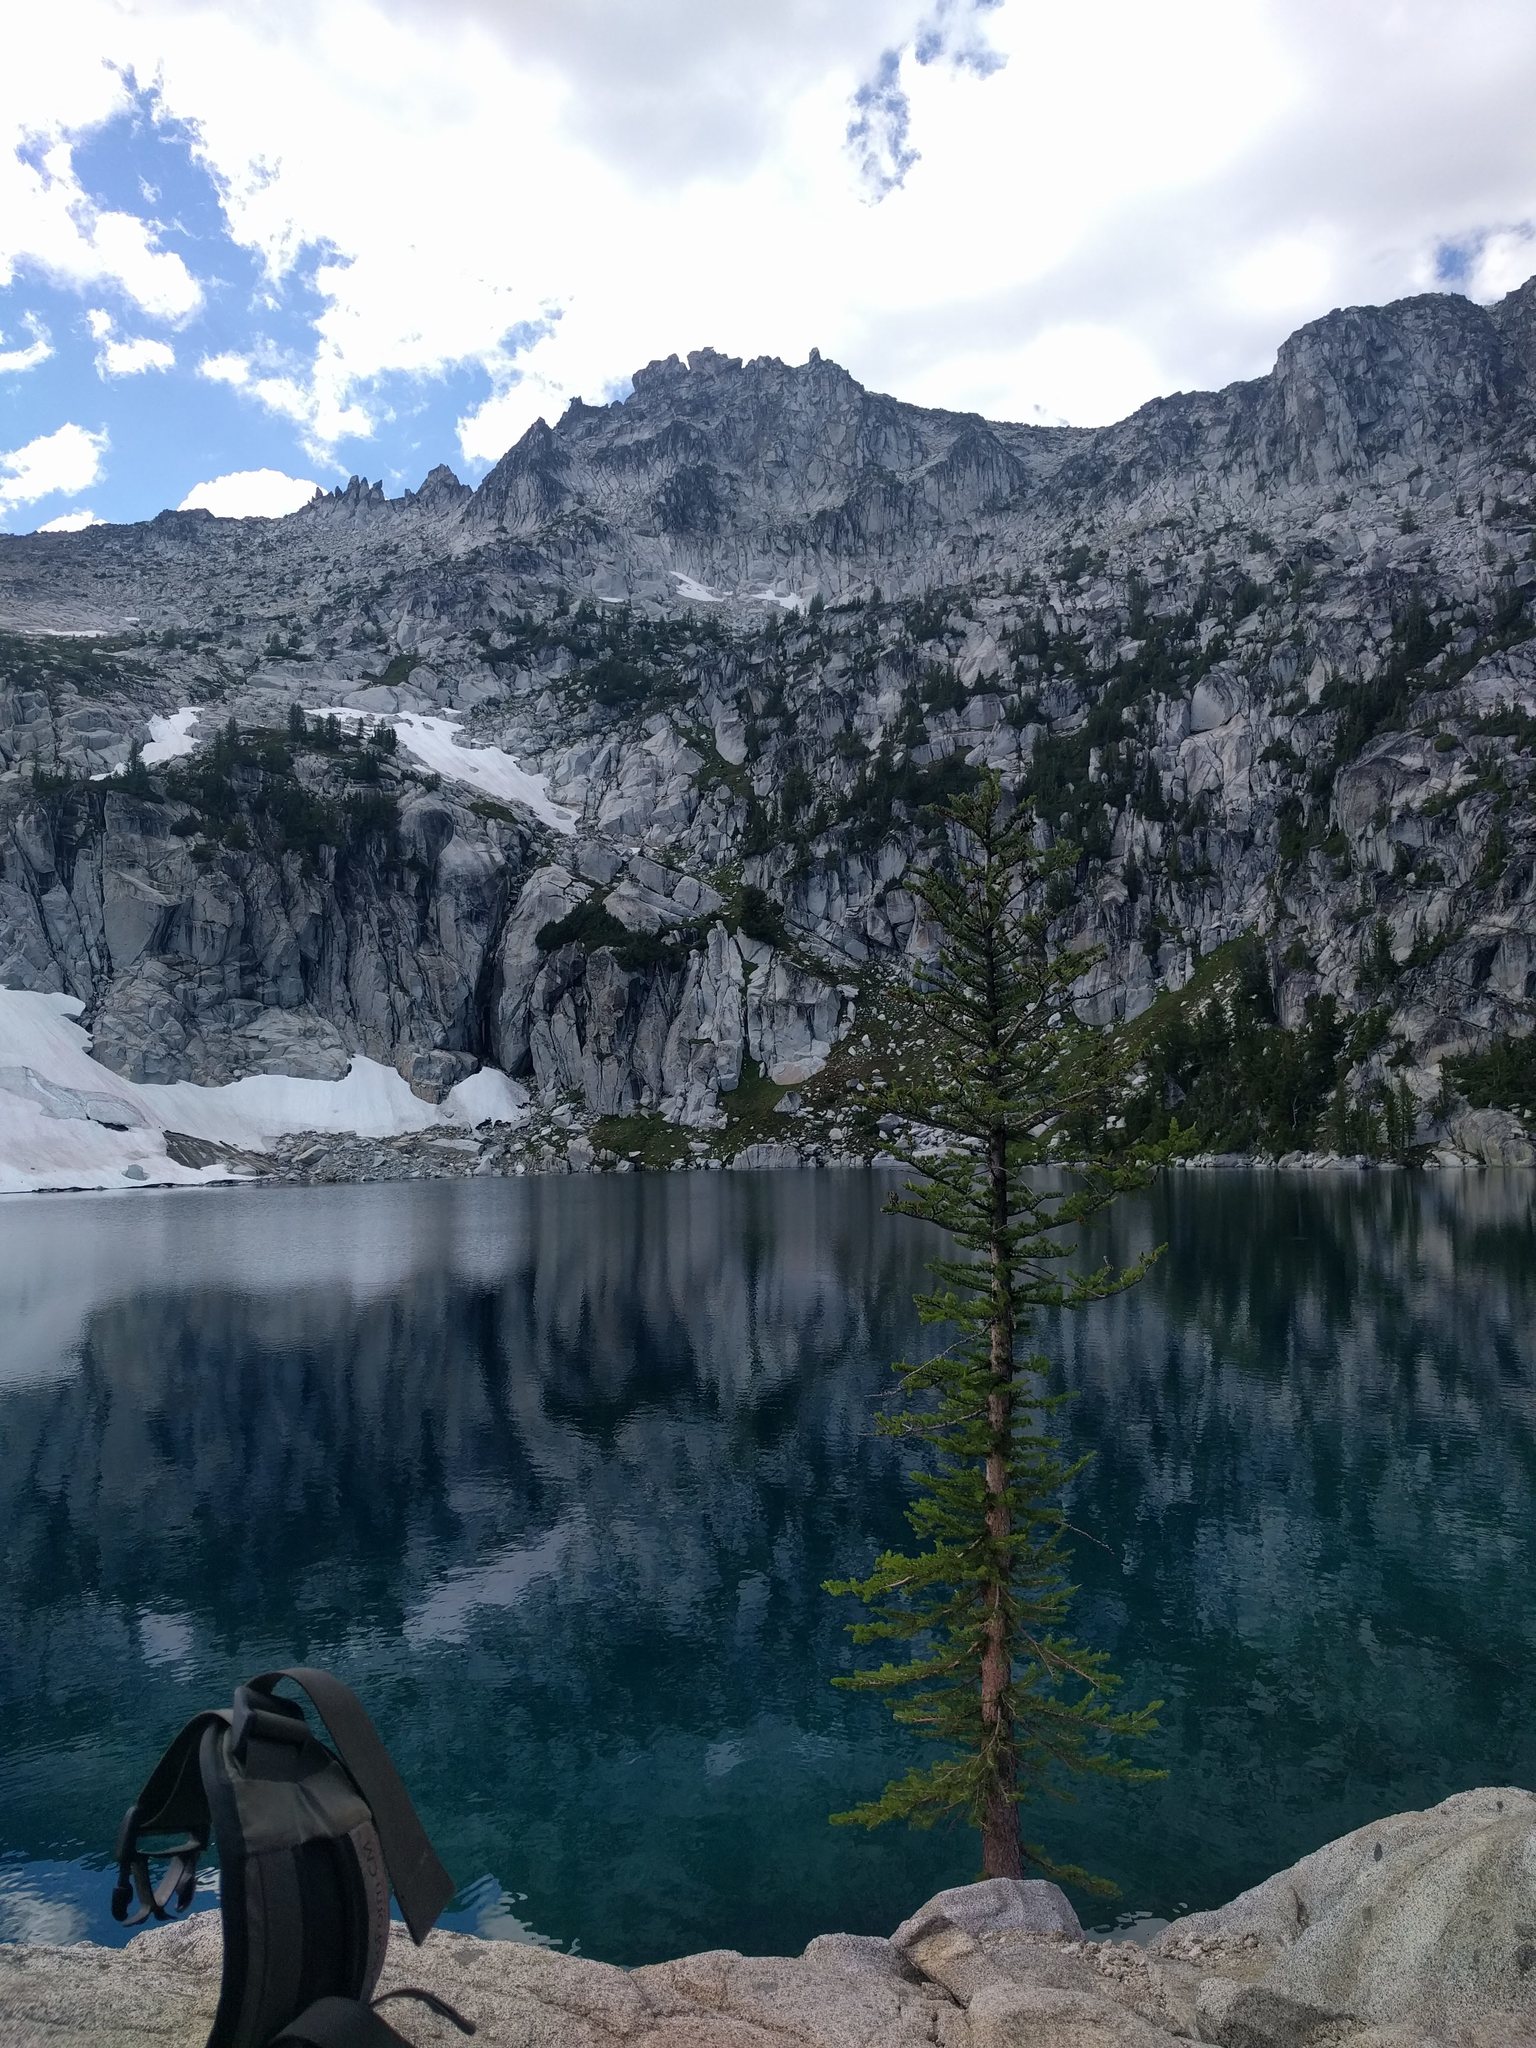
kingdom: Plantae
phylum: Tracheophyta
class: Pinopsida
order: Pinales
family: Pinaceae
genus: Larix
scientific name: Larix lyallii
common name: Alpine larch
